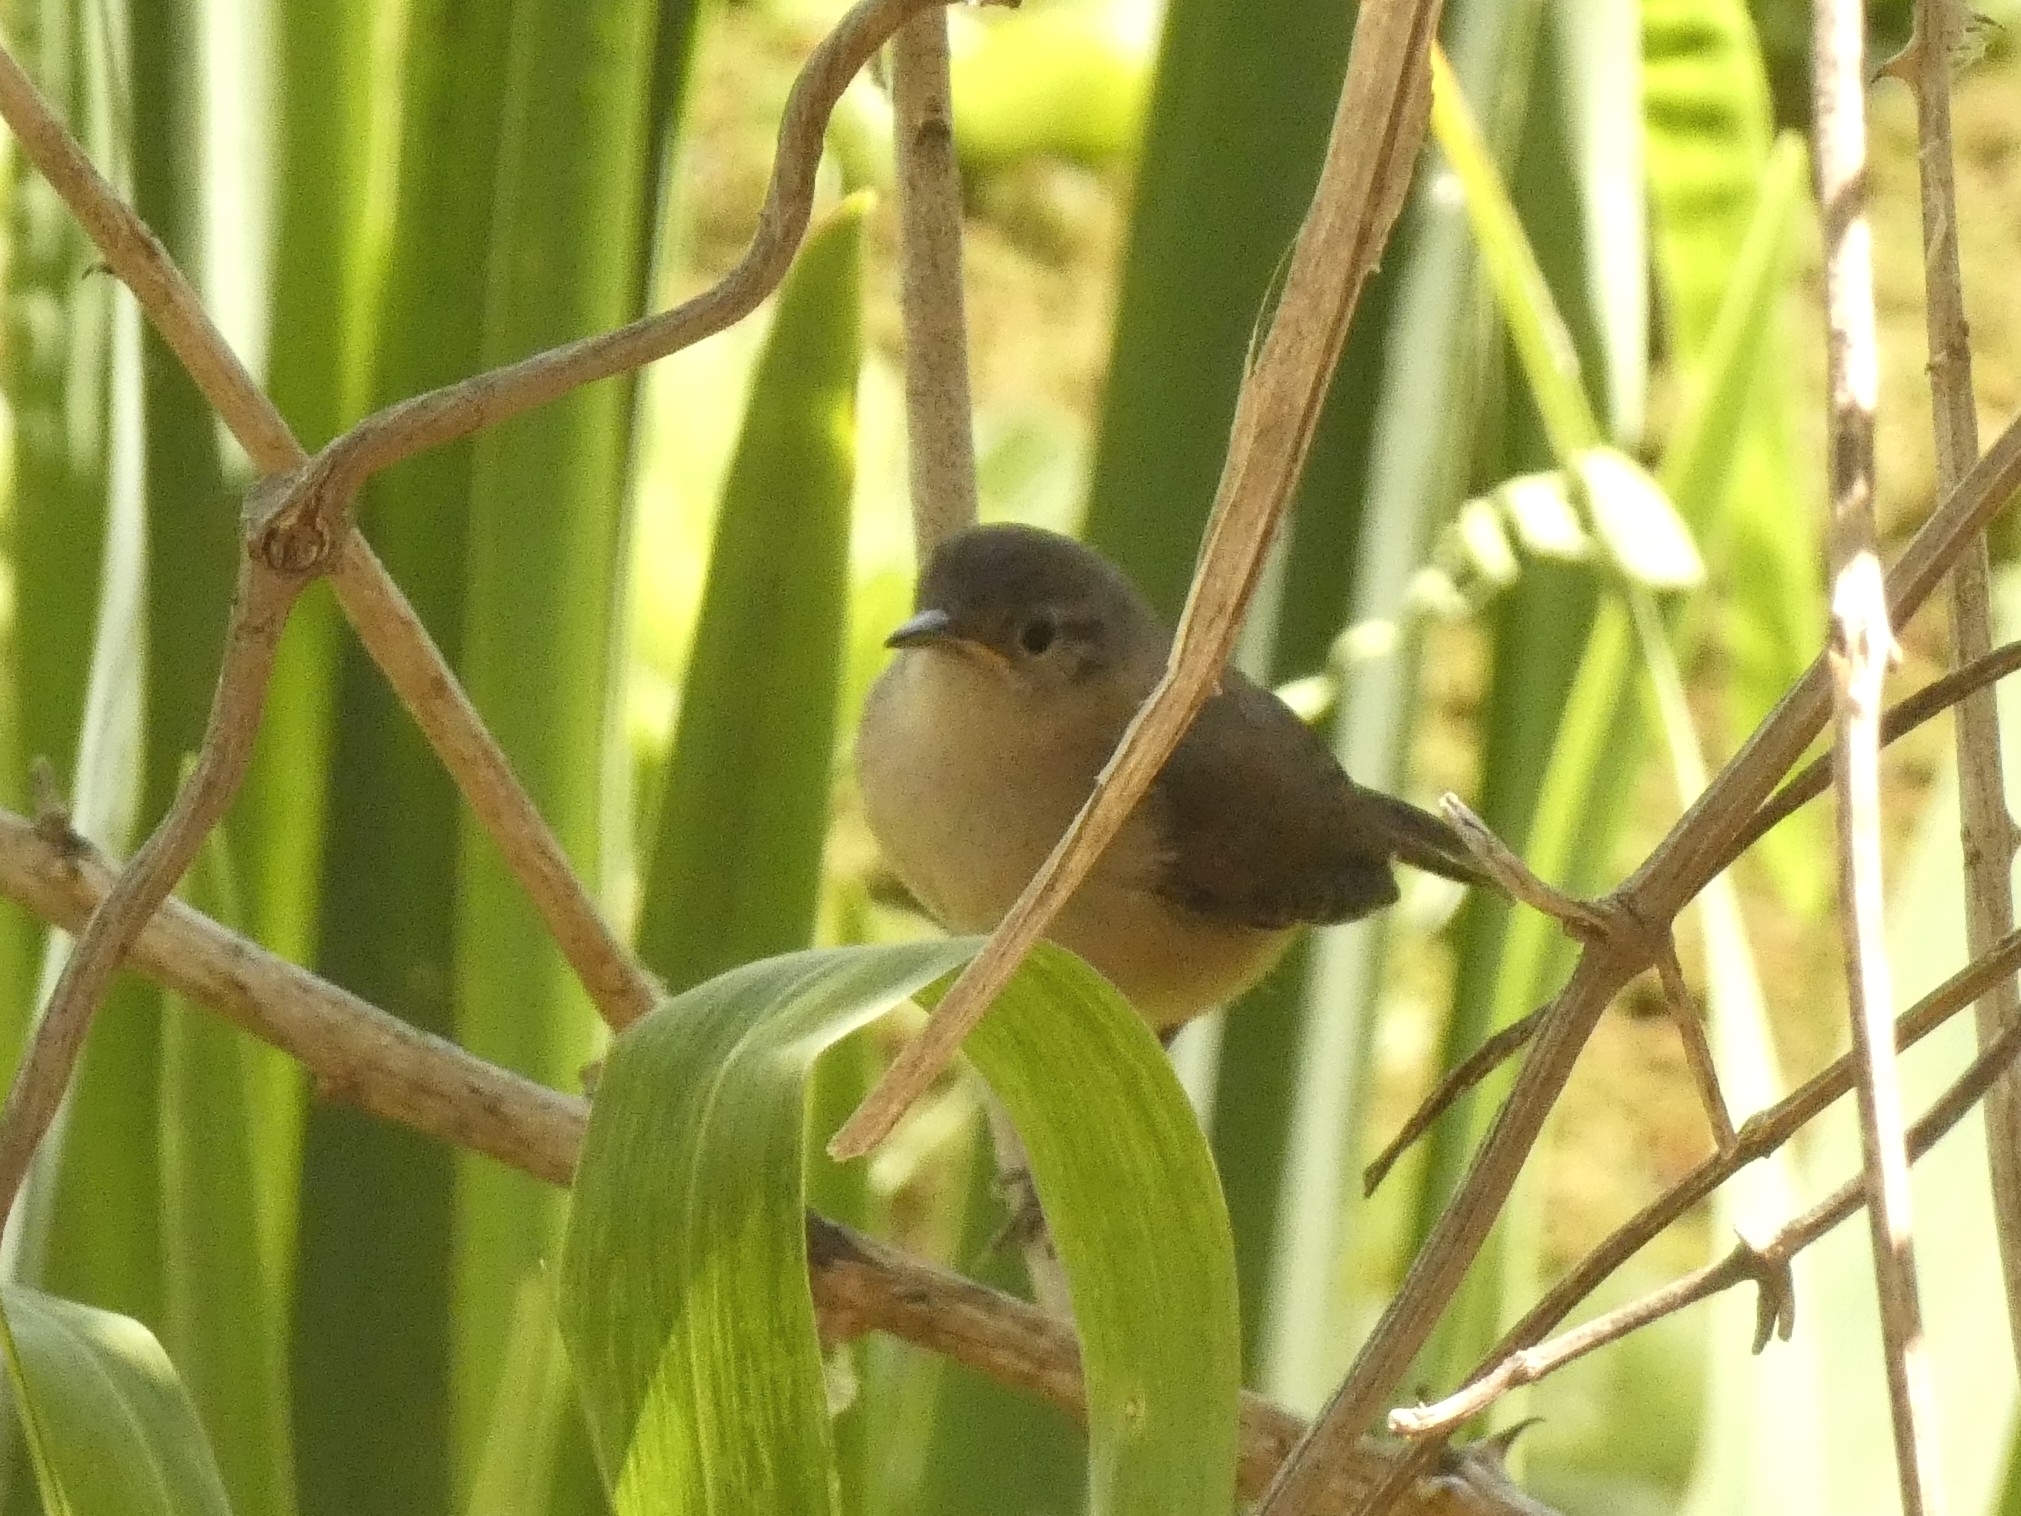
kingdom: Animalia
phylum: Chordata
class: Aves
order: Passeriformes
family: Troglodytidae
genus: Troglodytes
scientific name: Troglodytes aedon
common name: House wren
